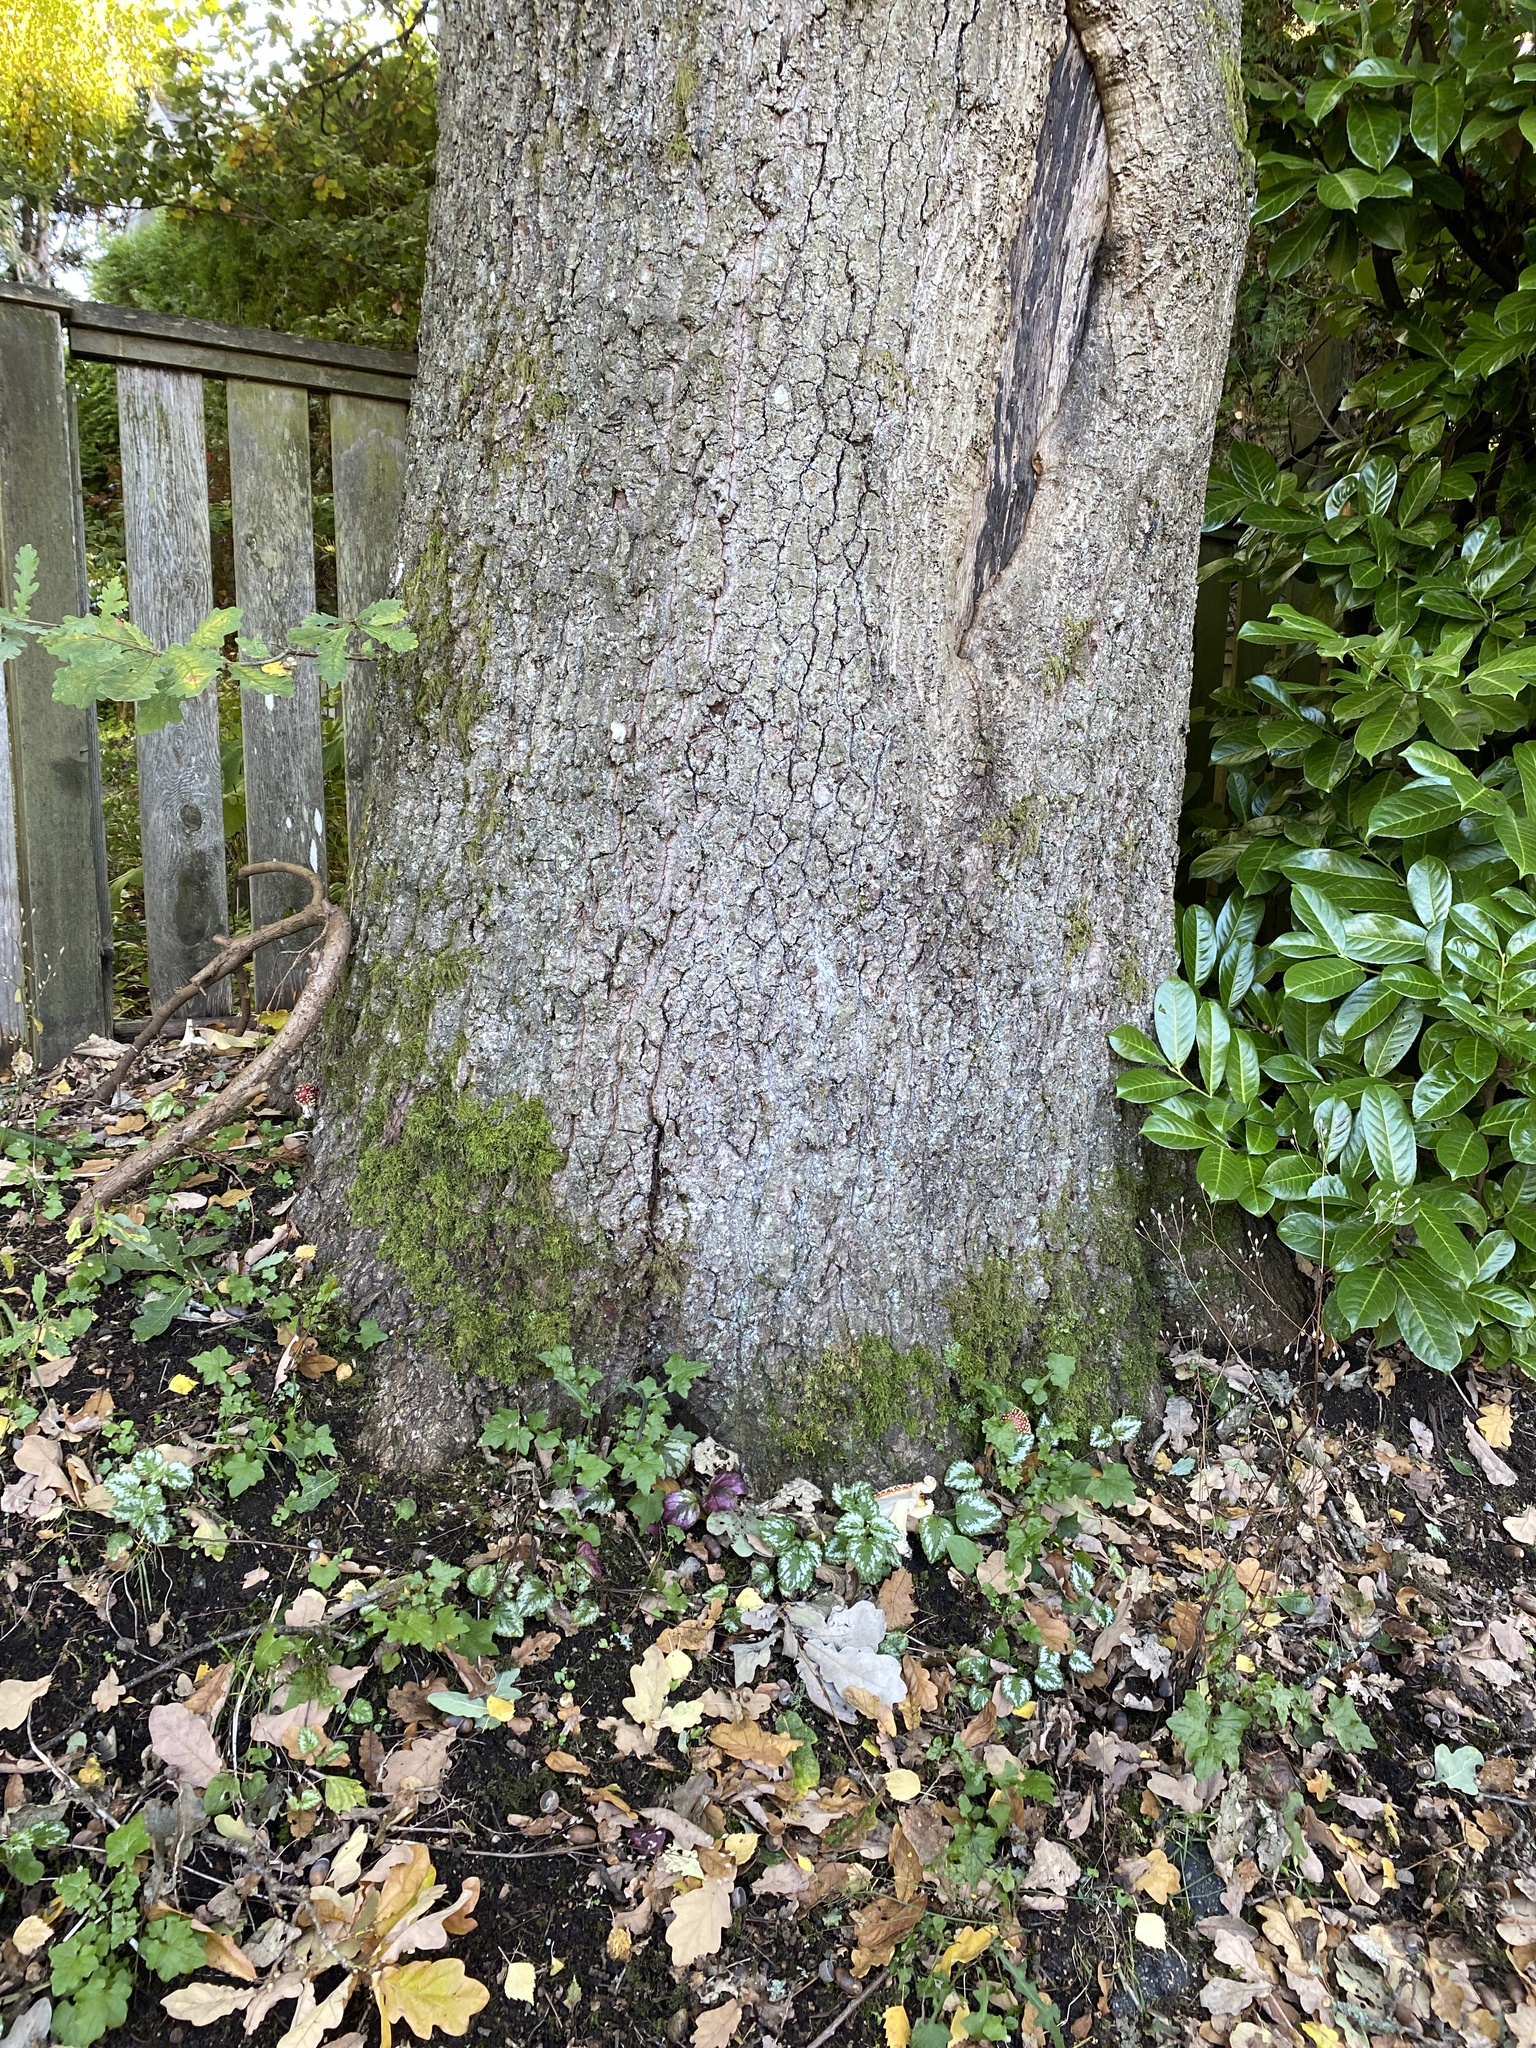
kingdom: Fungi
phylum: Basidiomycota
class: Agaricomycetes
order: Agaricales
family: Amanitaceae
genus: Amanita
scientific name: Amanita muscaria
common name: Fly agaric
